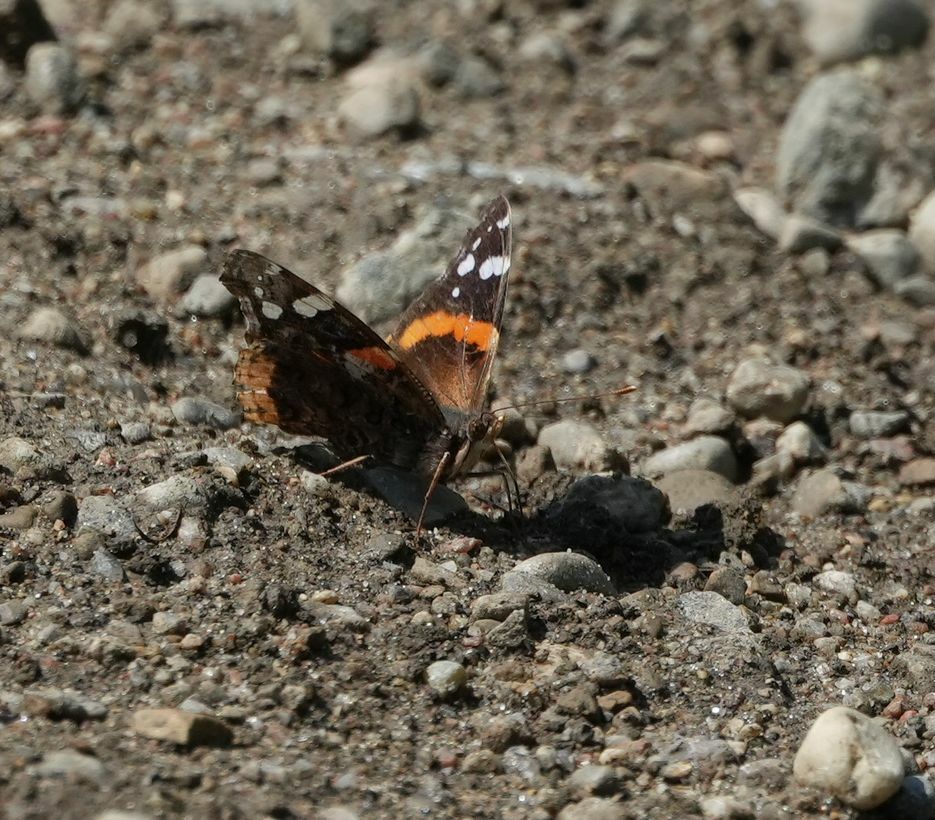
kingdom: Animalia
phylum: Arthropoda
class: Insecta
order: Lepidoptera
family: Nymphalidae
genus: Vanessa
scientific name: Vanessa atalanta
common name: Red admiral
